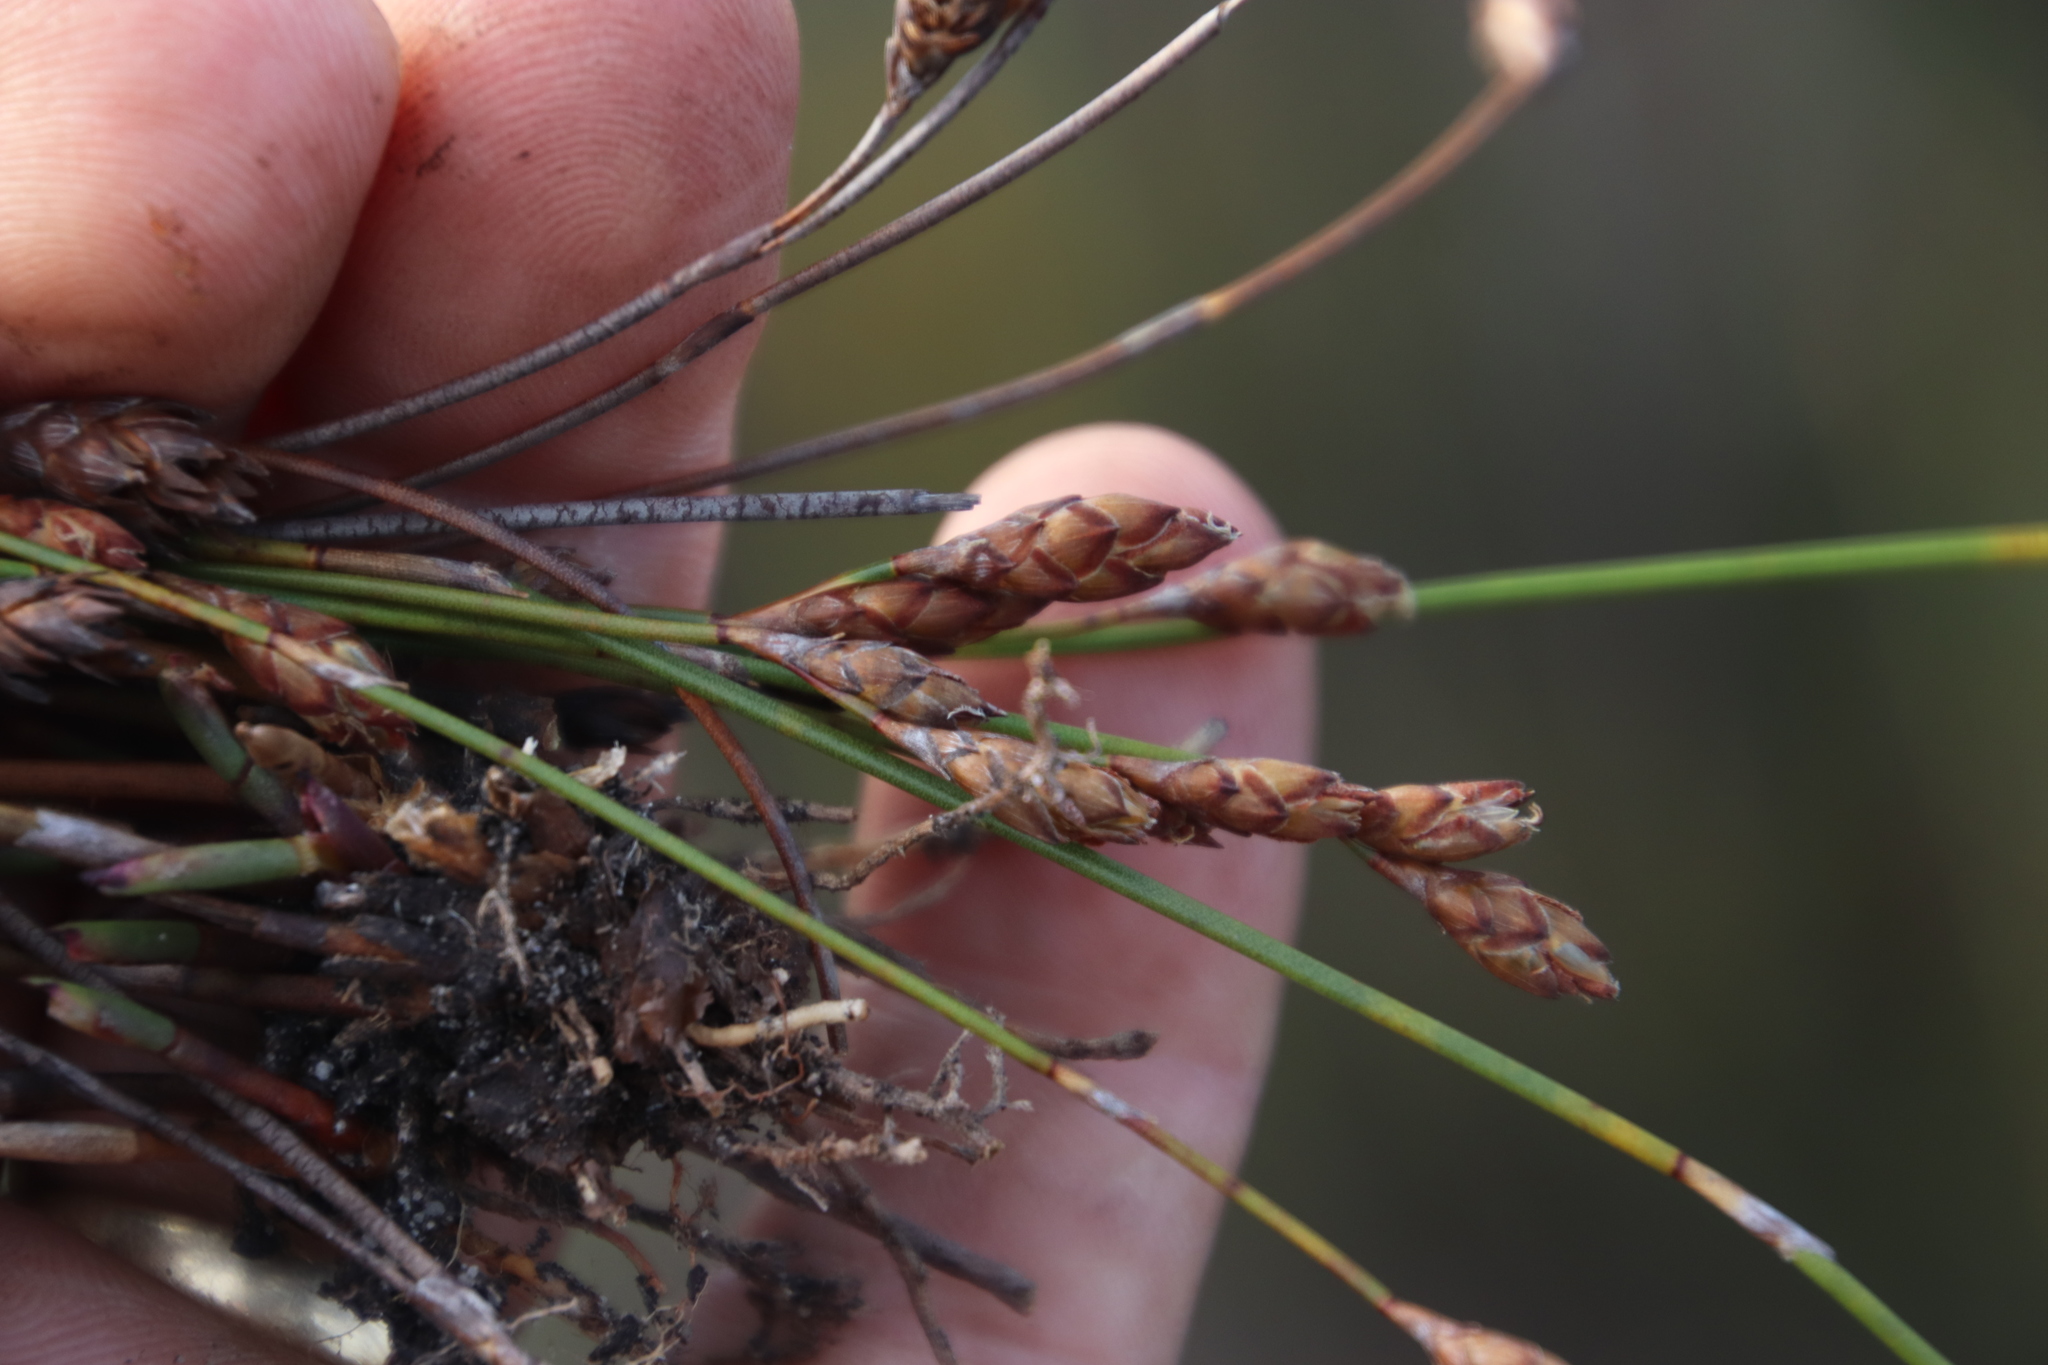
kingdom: Plantae
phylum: Tracheophyta
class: Liliopsida
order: Poales
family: Restionaceae
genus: Restio
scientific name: Restio bifurcus
